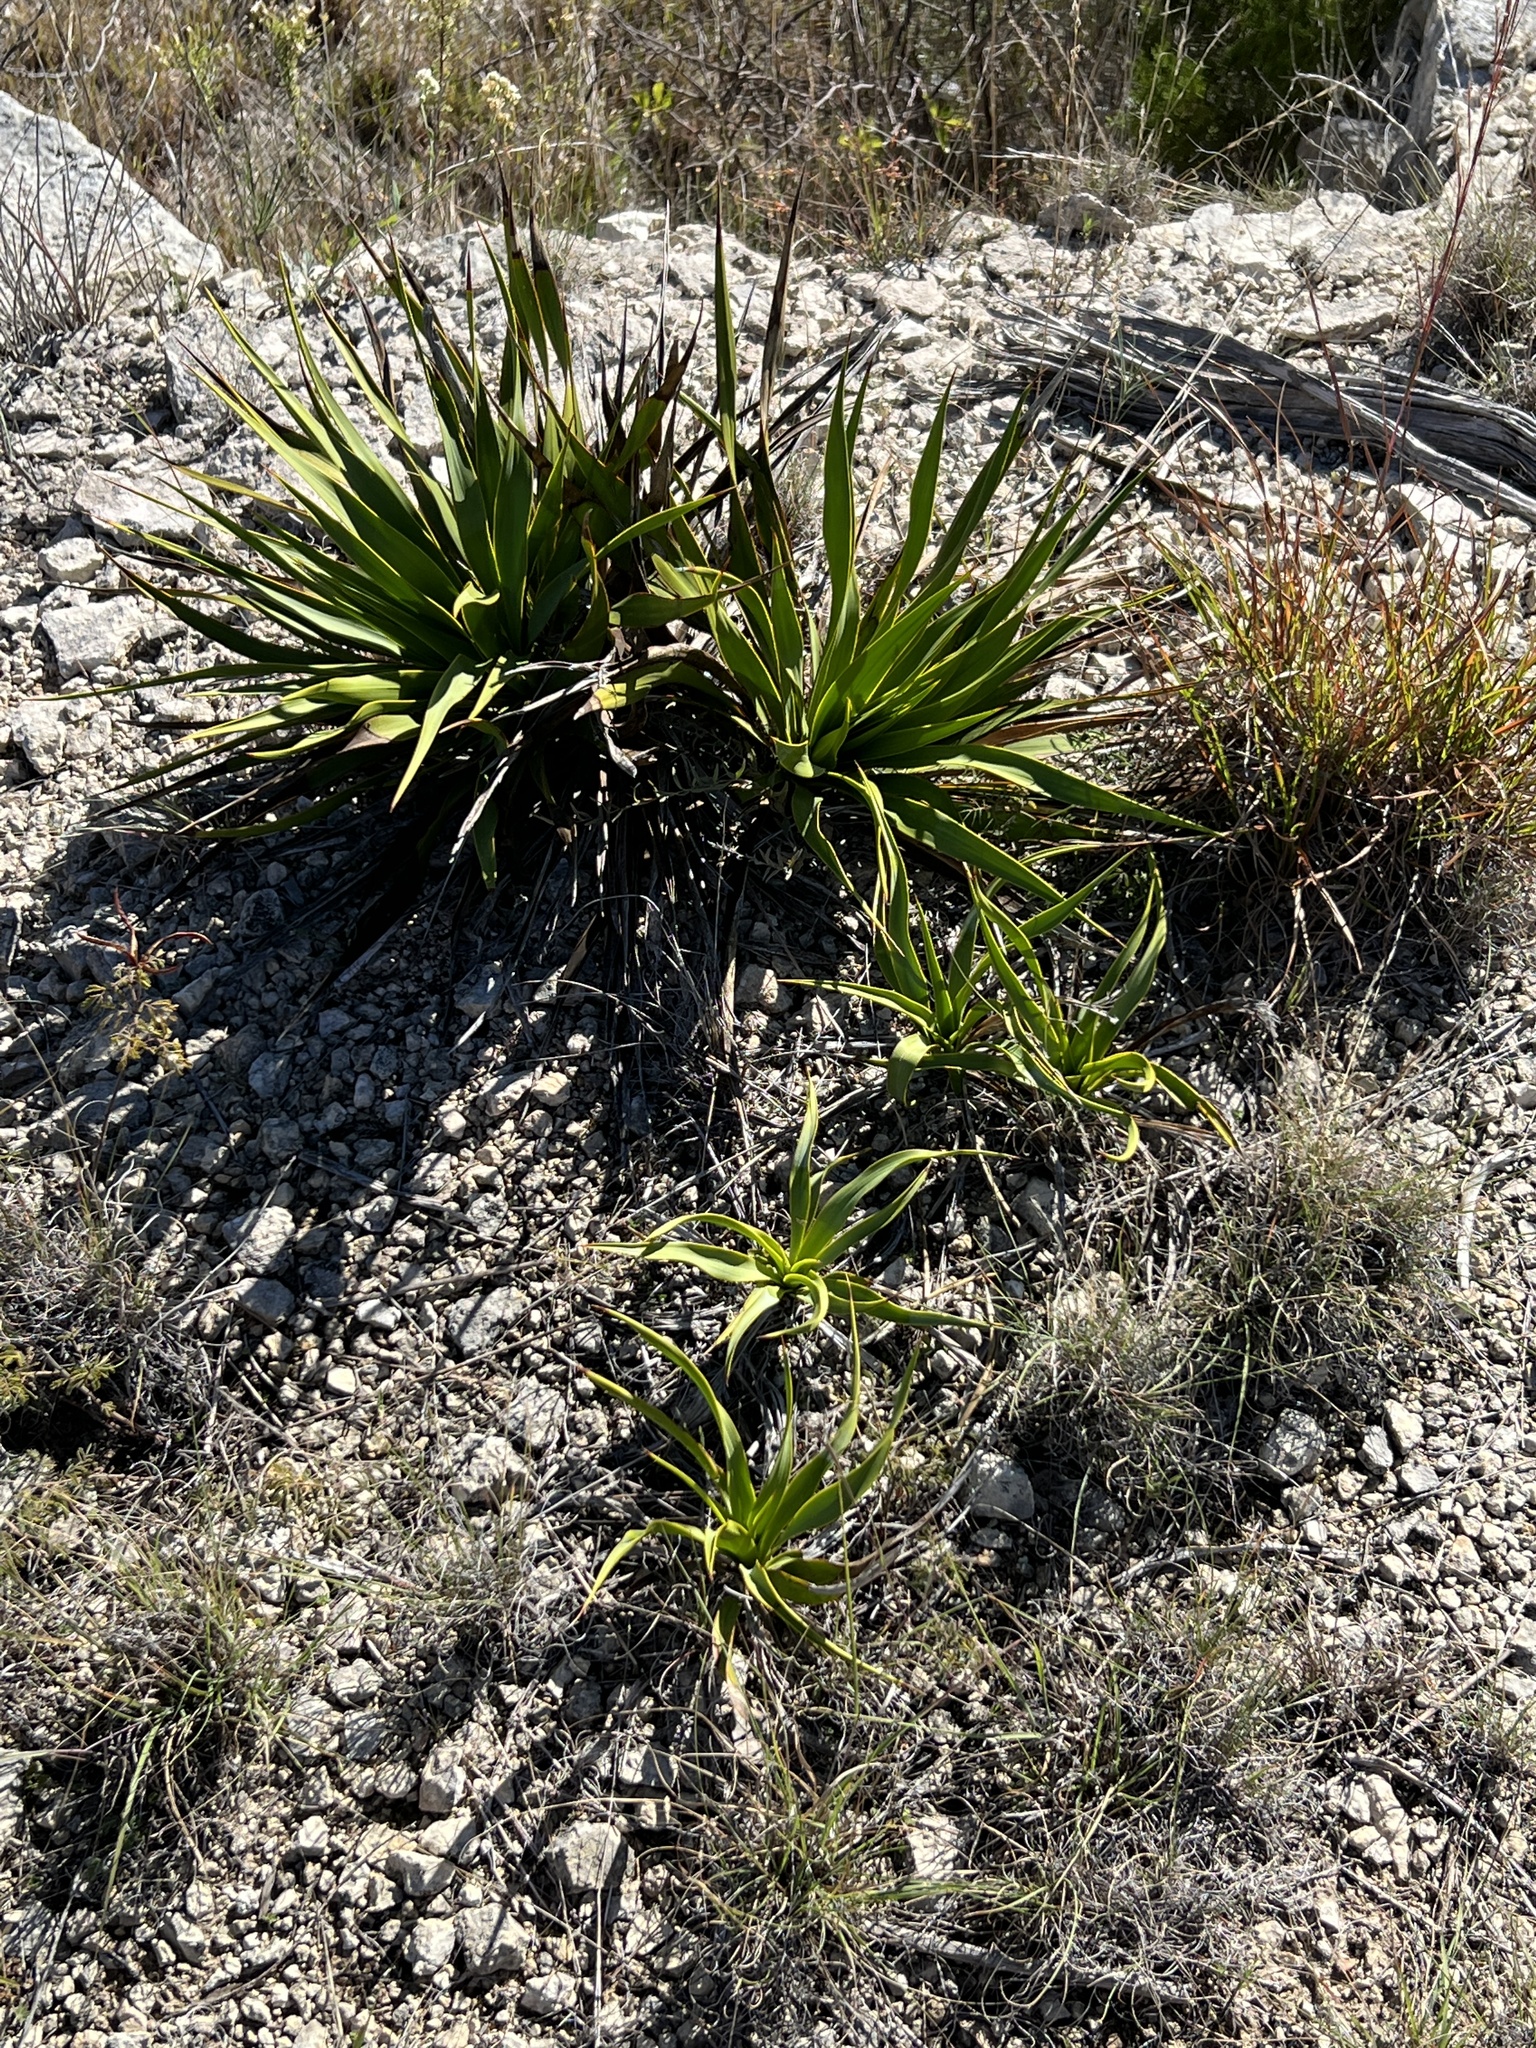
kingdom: Plantae
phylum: Tracheophyta
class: Liliopsida
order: Asparagales
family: Asparagaceae
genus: Yucca
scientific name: Yucca rupicola
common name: Twisted-leaf spanish-dagger
